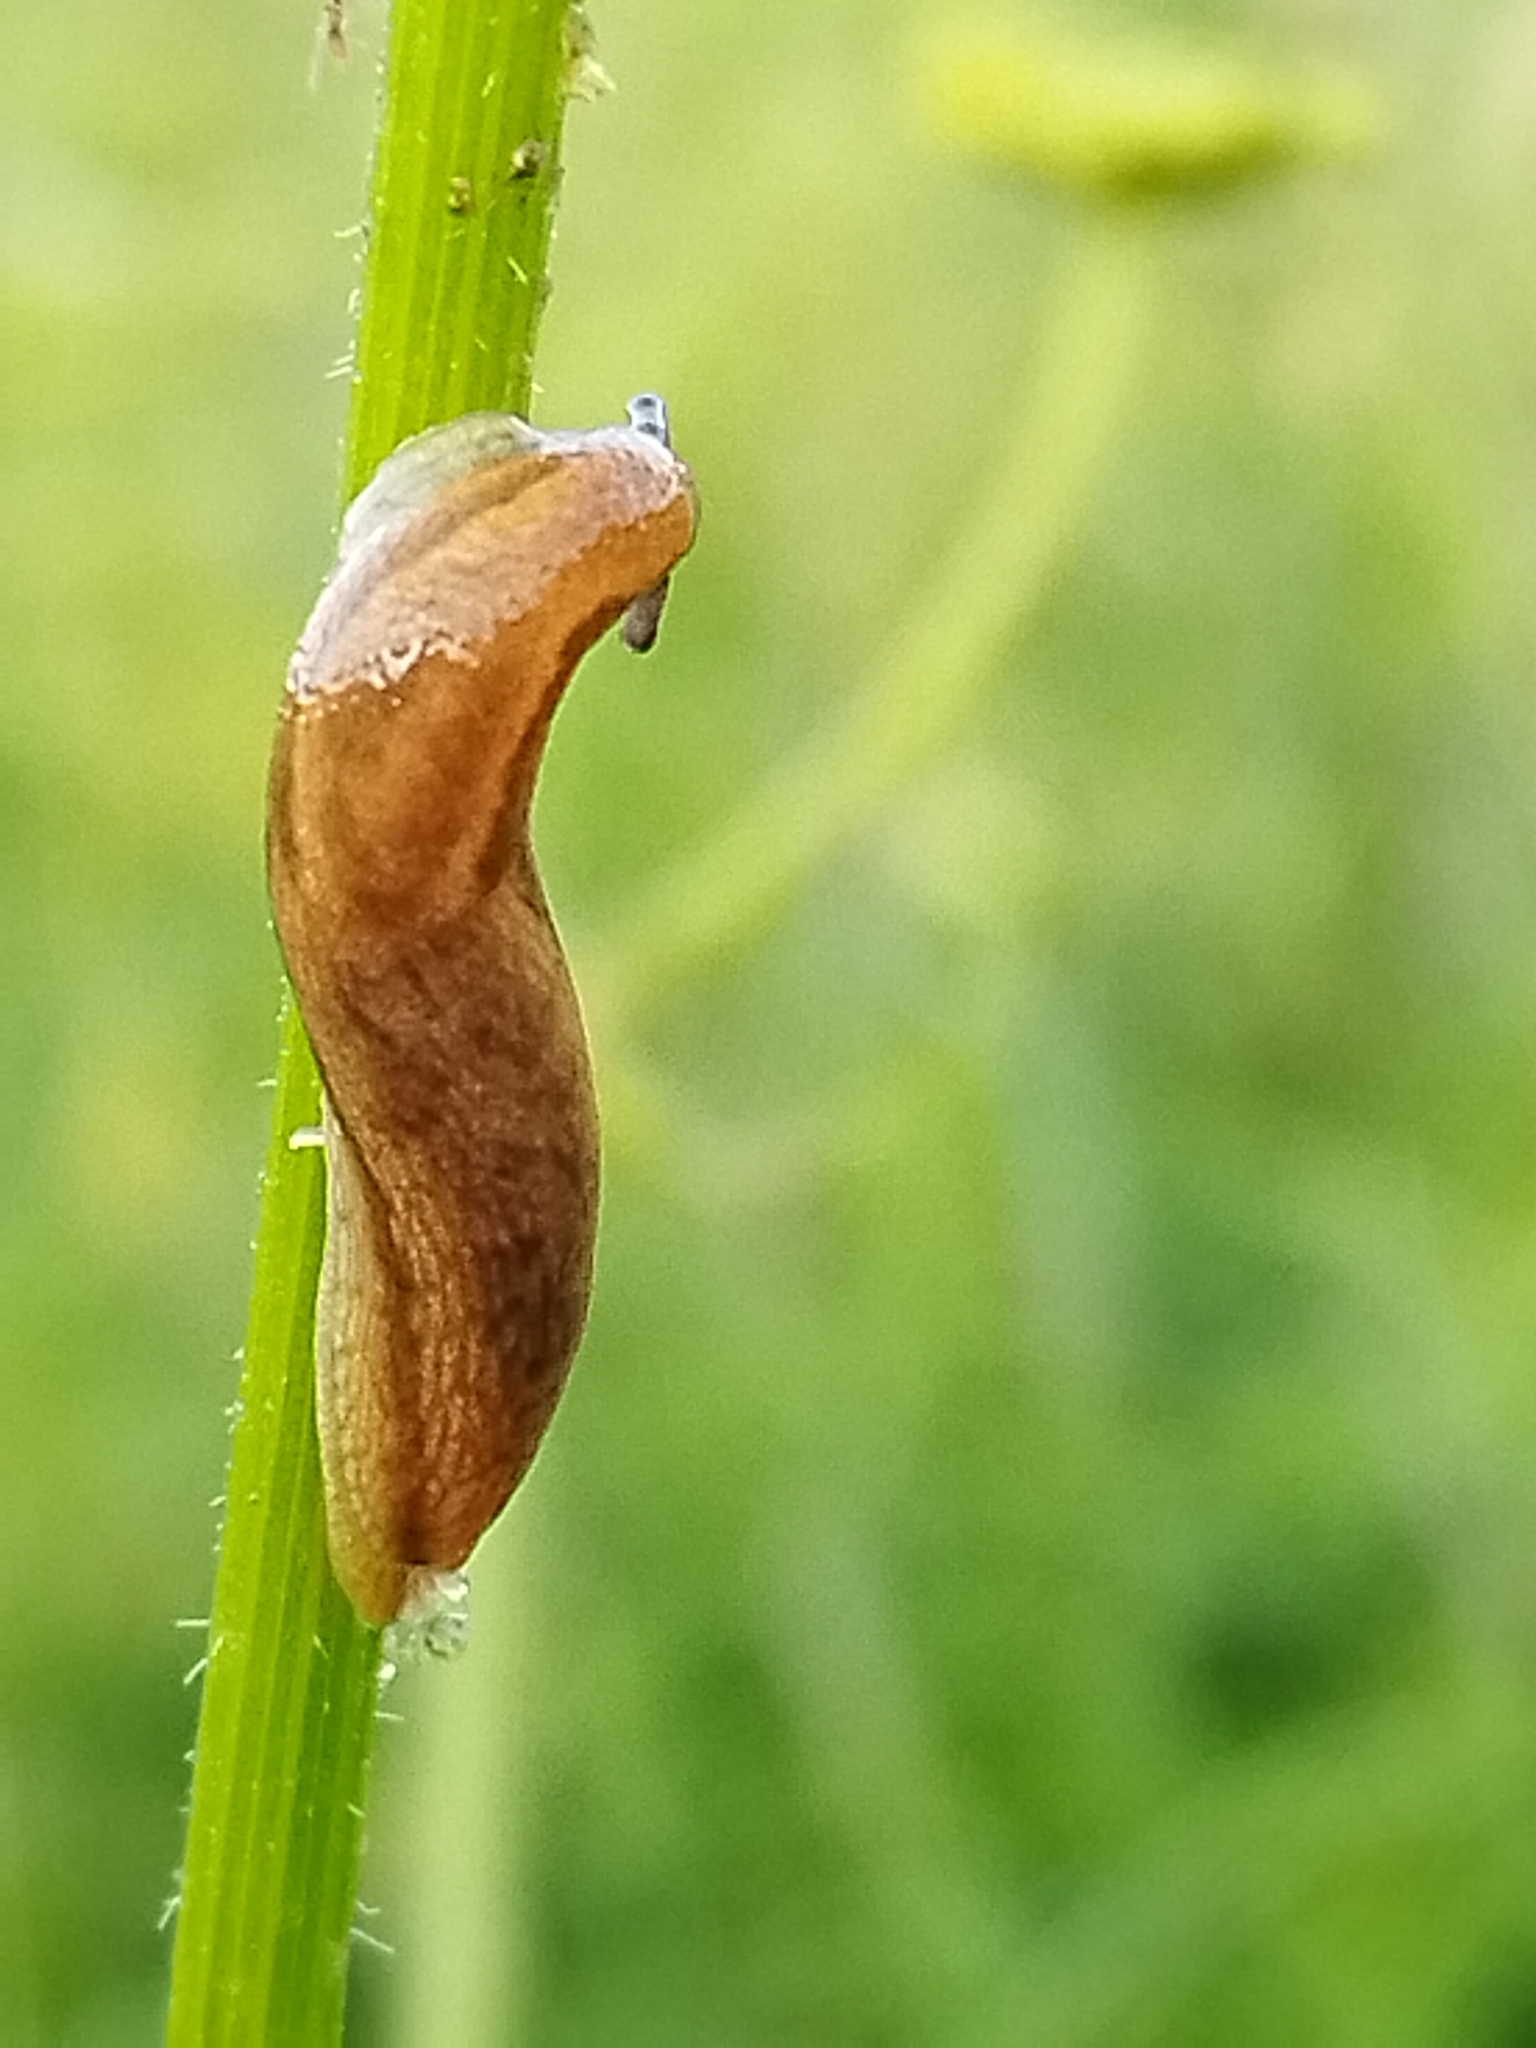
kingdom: Animalia
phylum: Mollusca
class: Gastropoda
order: Stylommatophora
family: Arionidae
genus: Arion
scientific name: Arion fuscus
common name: Northern dusky slug
